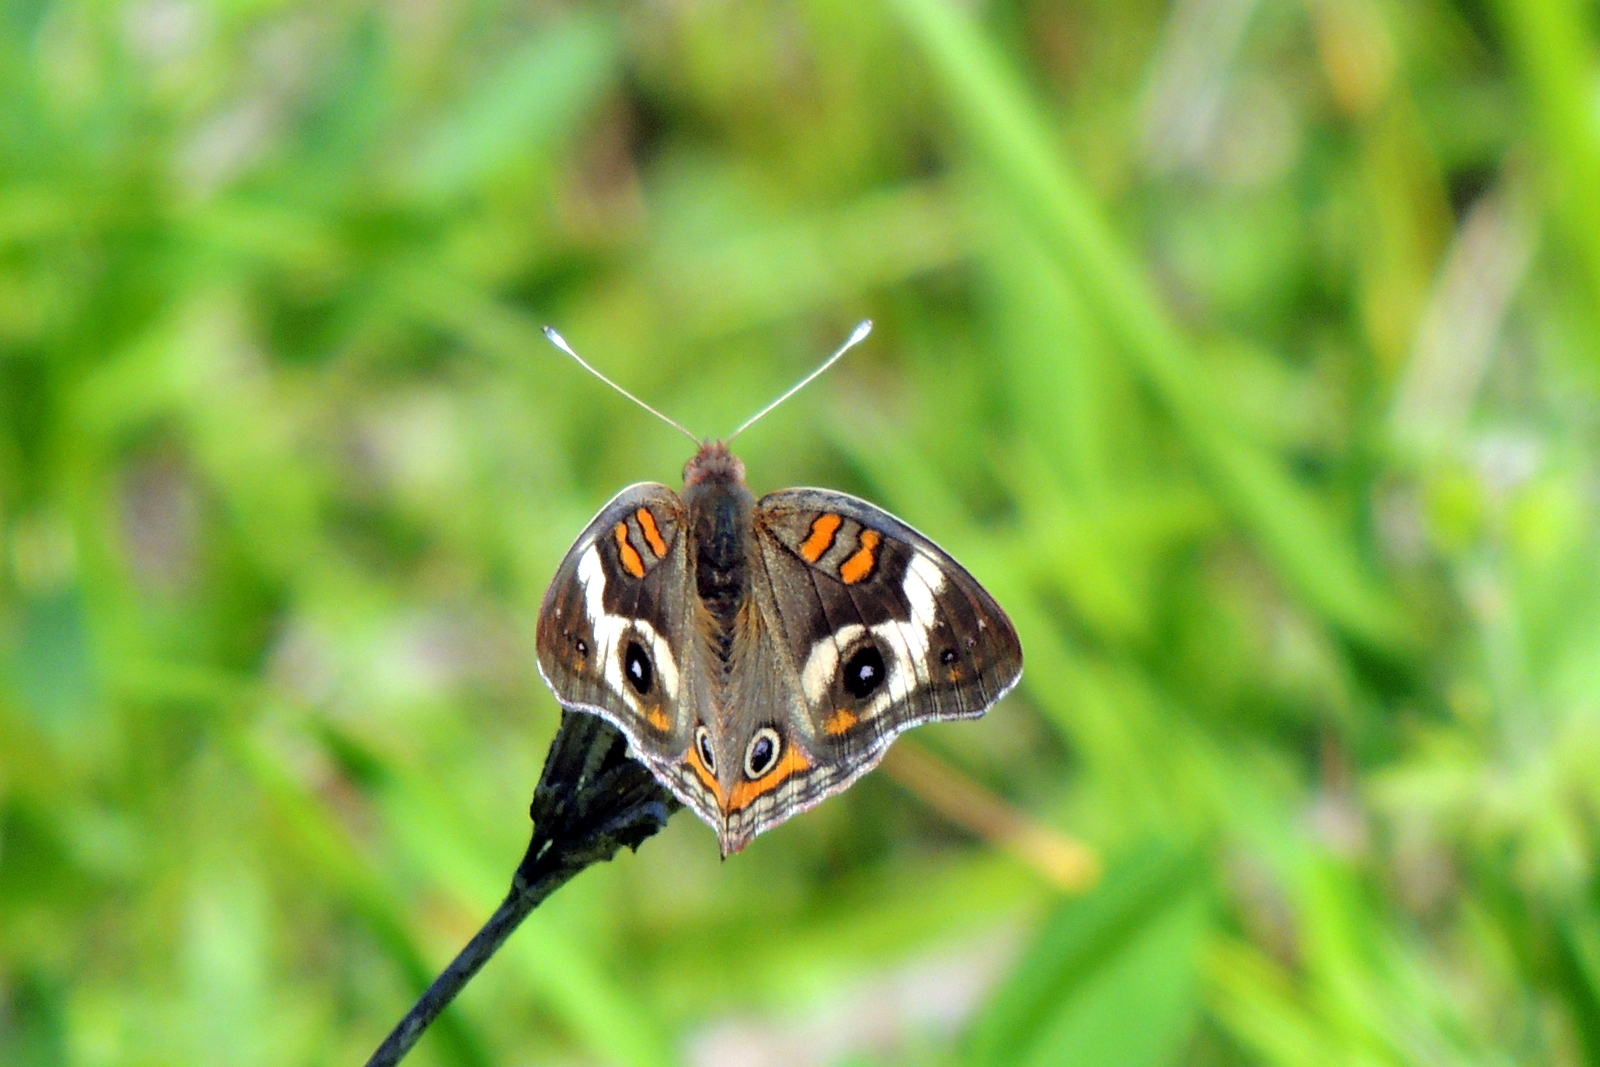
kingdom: Animalia
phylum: Arthropoda
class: Insecta
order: Lepidoptera
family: Nymphalidae
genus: Junonia
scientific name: Junonia coenia
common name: Common buckeye
